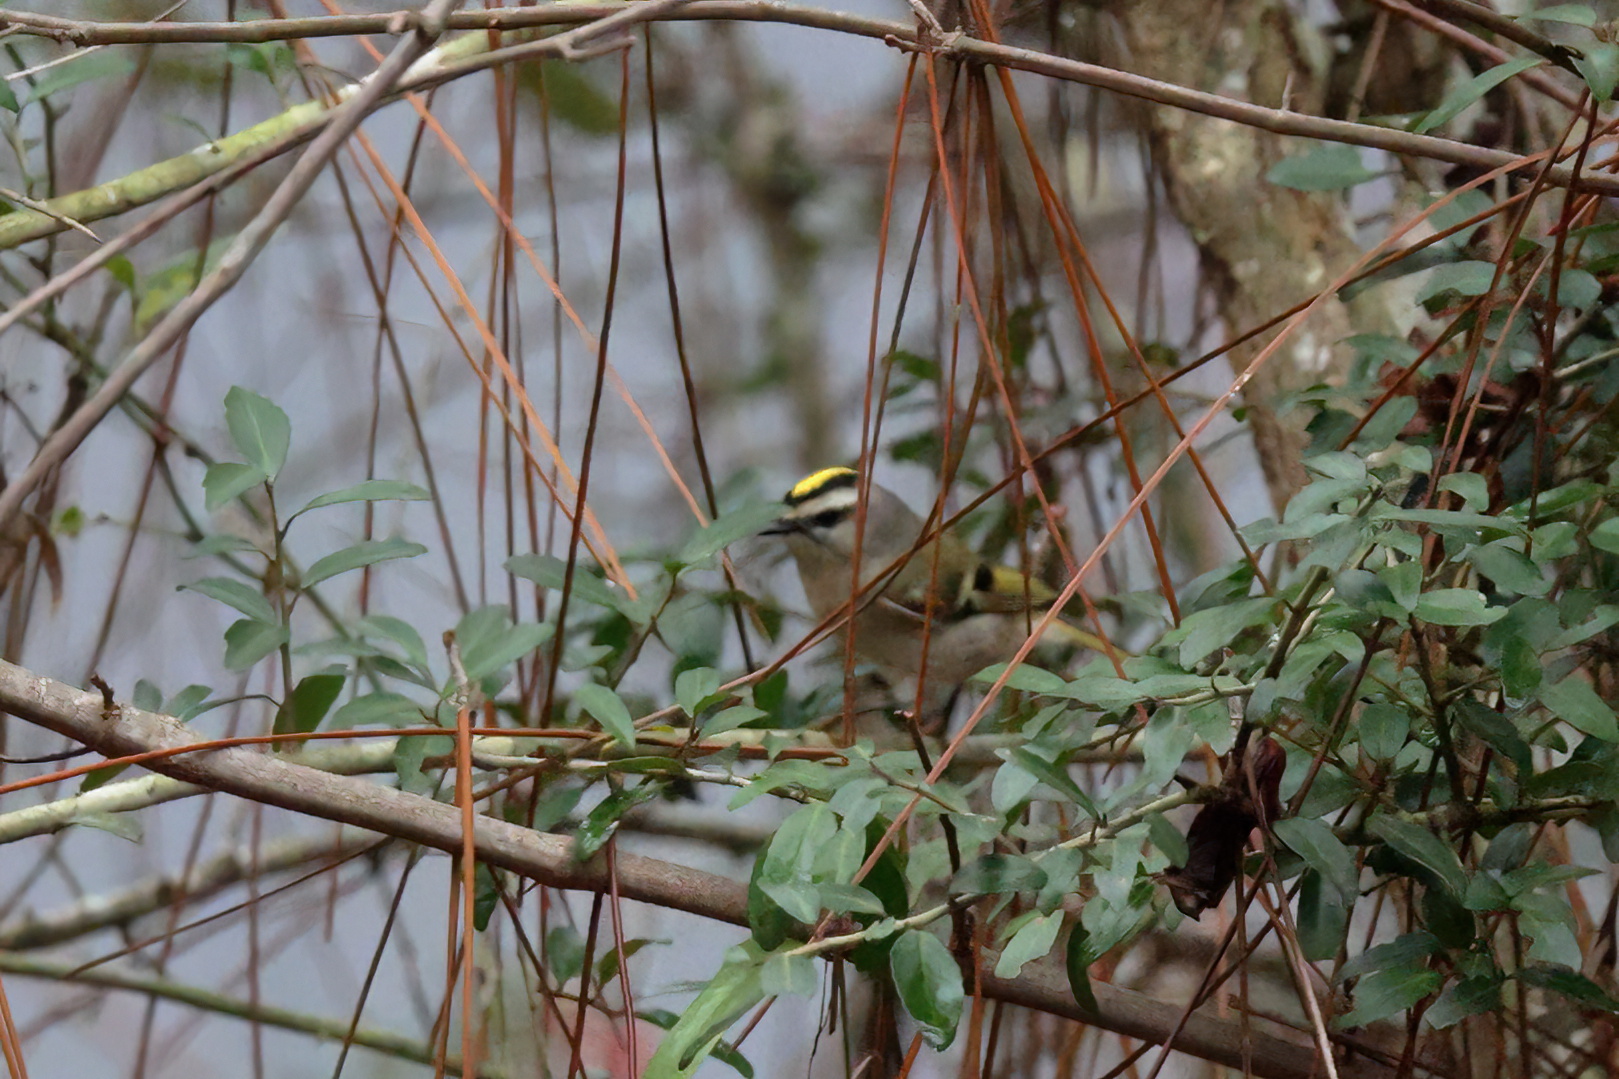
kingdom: Animalia
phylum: Chordata
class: Aves
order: Passeriformes
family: Regulidae
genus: Regulus
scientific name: Regulus satrapa
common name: Golden-crowned kinglet
